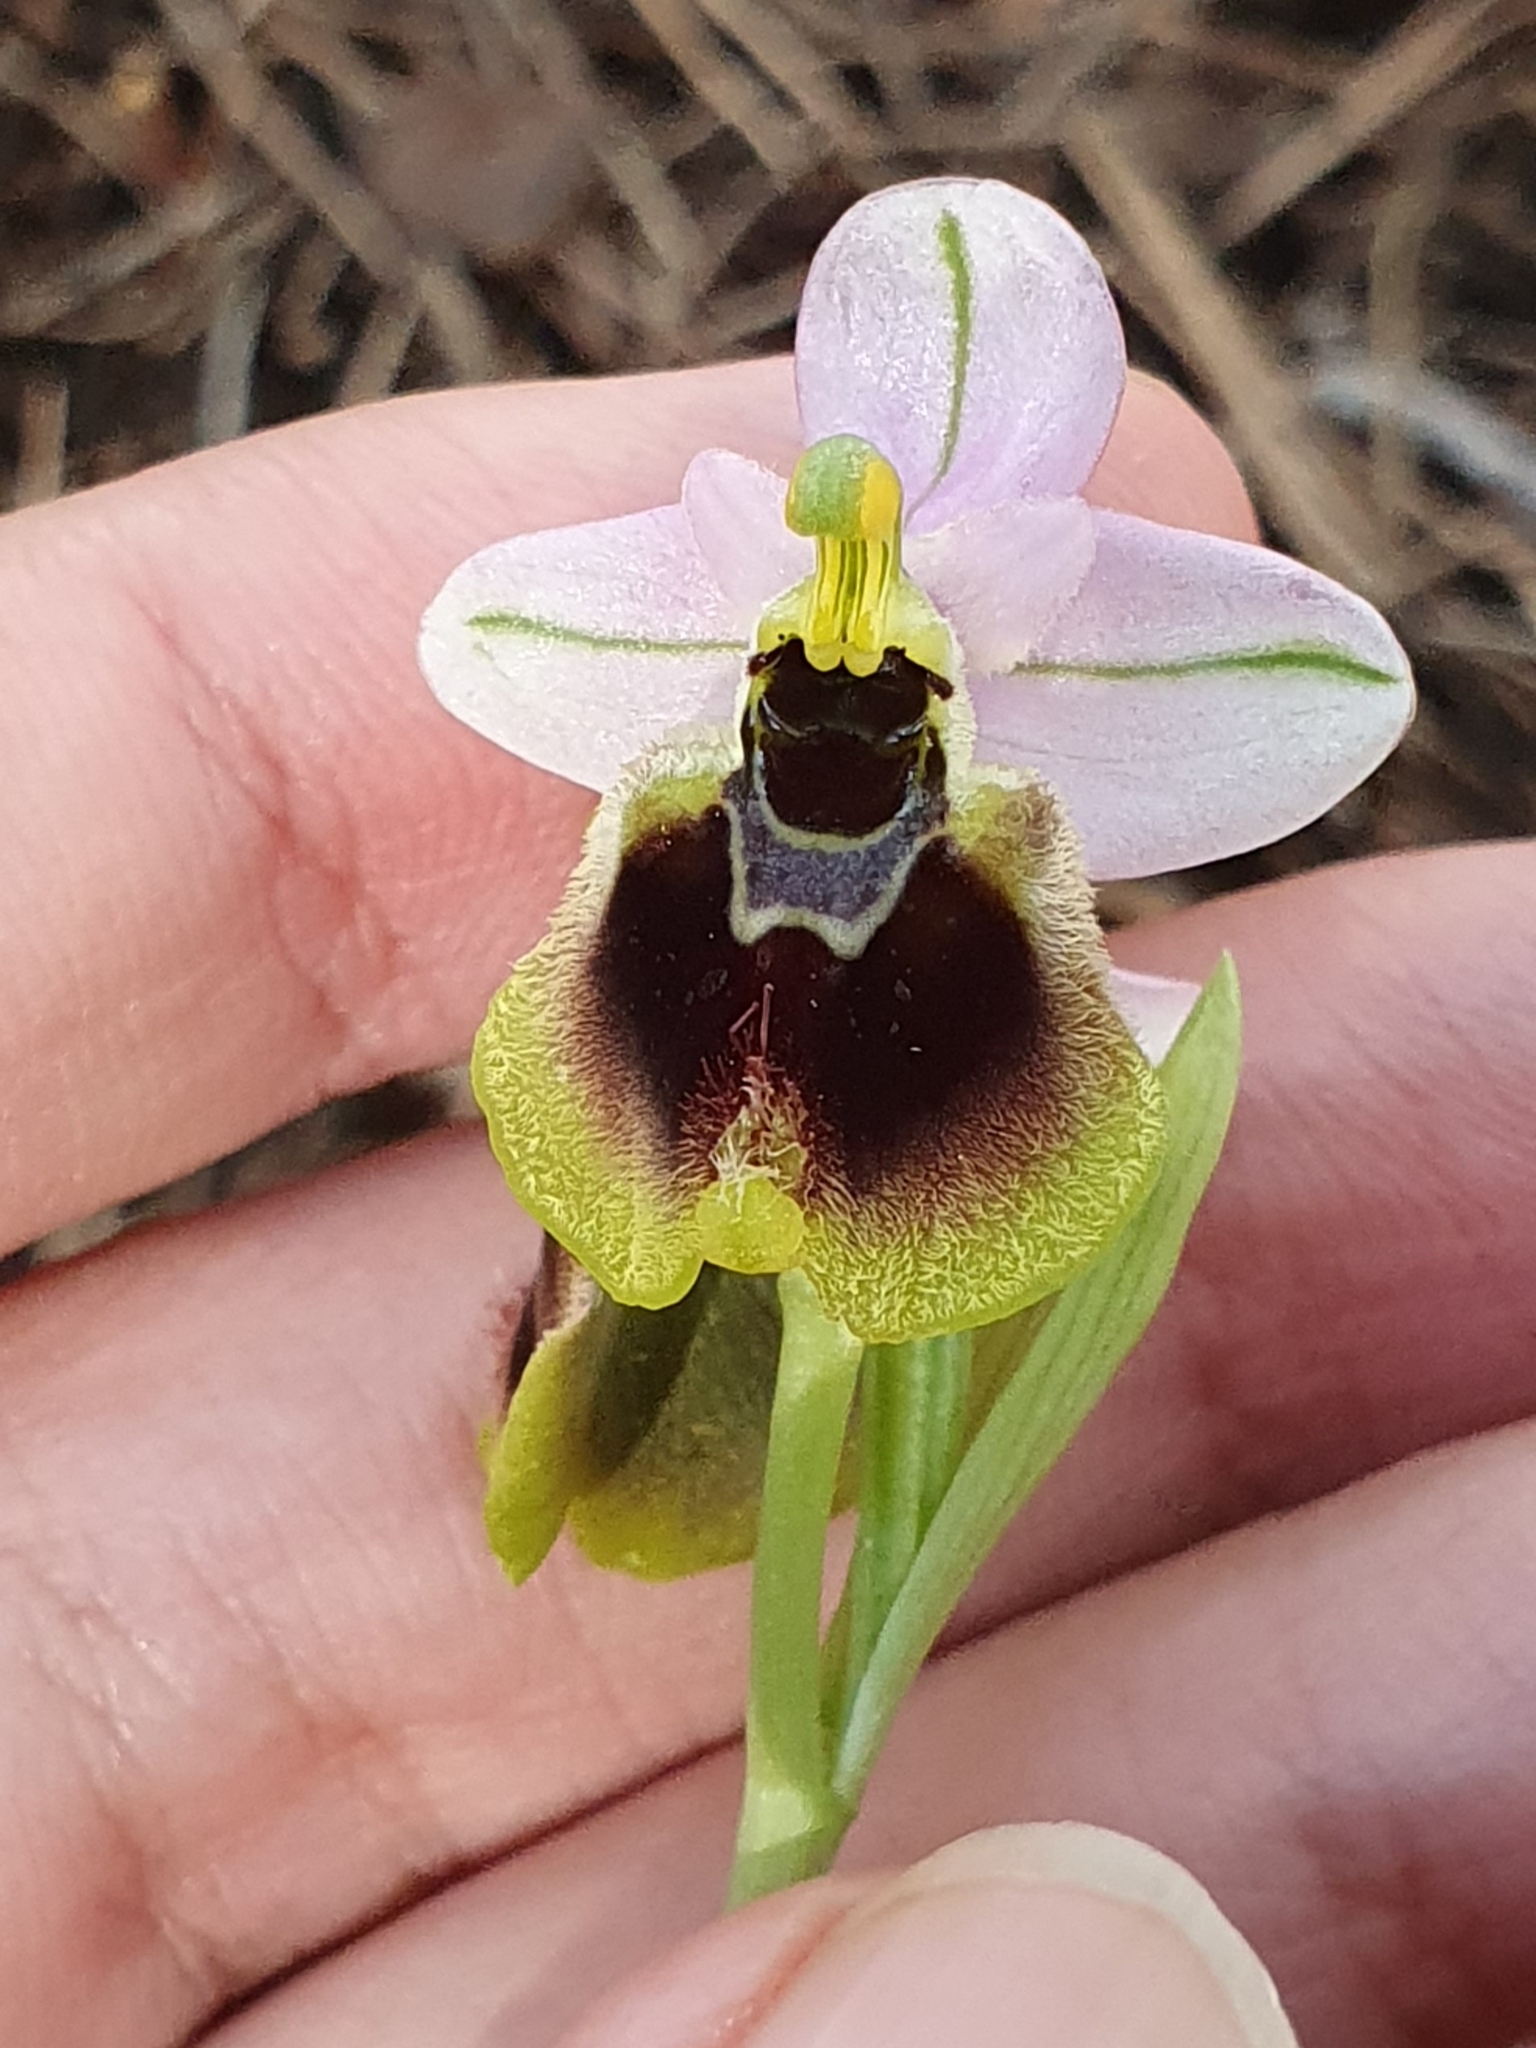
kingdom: Plantae
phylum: Tracheophyta
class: Liliopsida
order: Asparagales
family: Orchidaceae
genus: Ophrys
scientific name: Ophrys tenthredinifera
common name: Sawfly orchid
